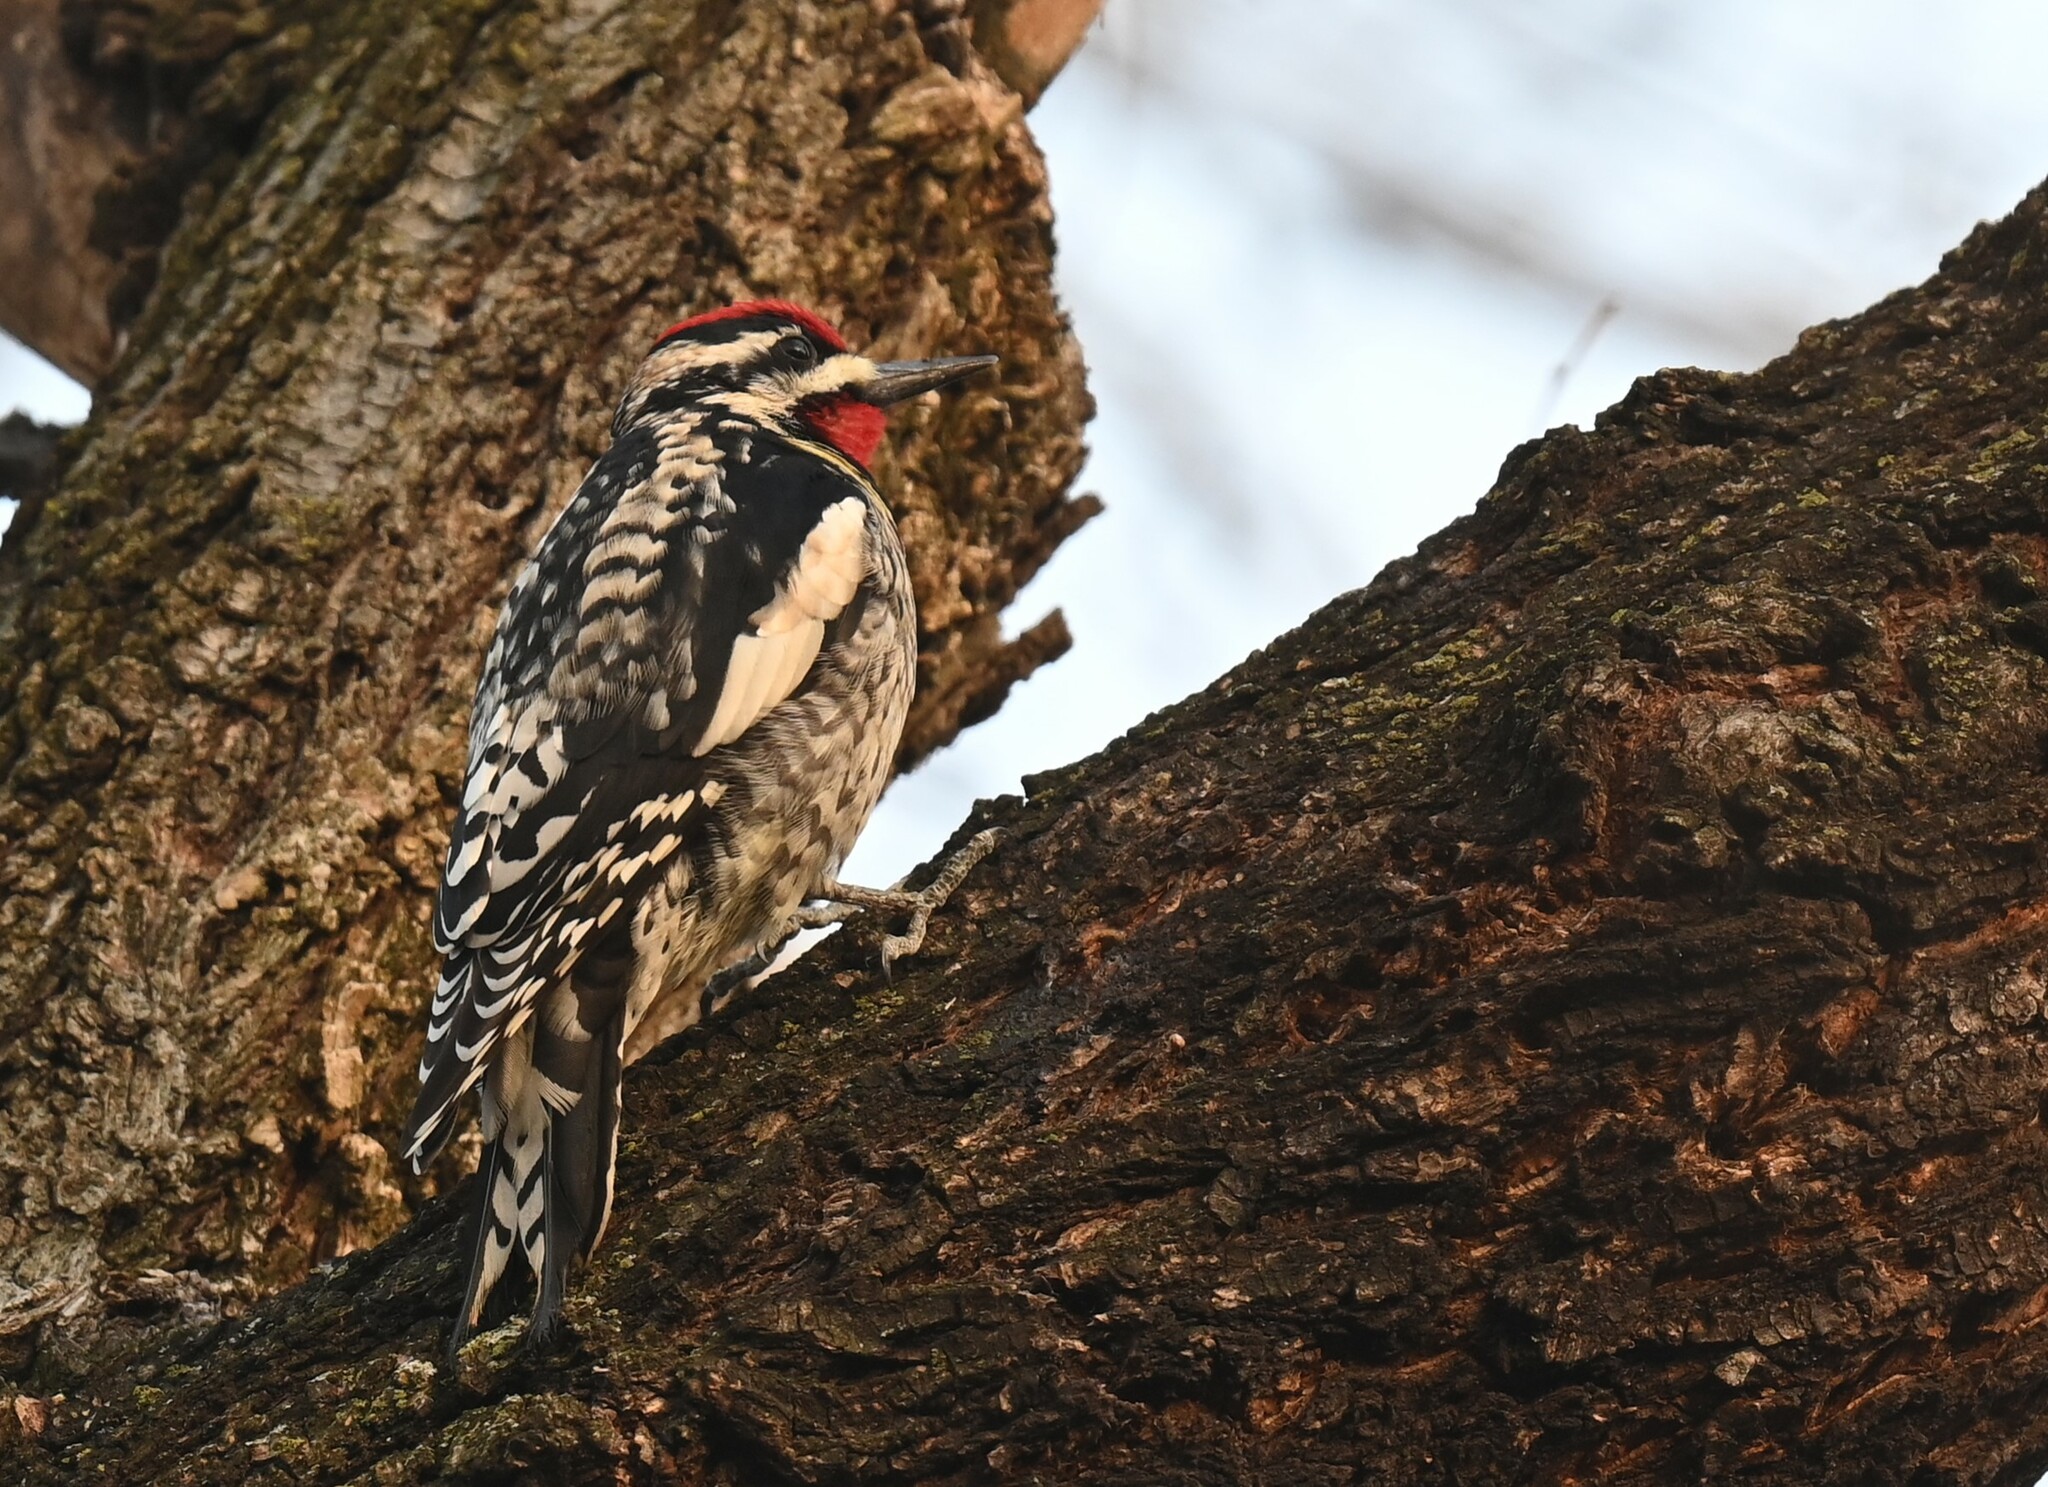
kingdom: Animalia
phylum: Chordata
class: Aves
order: Piciformes
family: Picidae
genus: Sphyrapicus
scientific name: Sphyrapicus varius
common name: Yellow-bellied sapsucker
